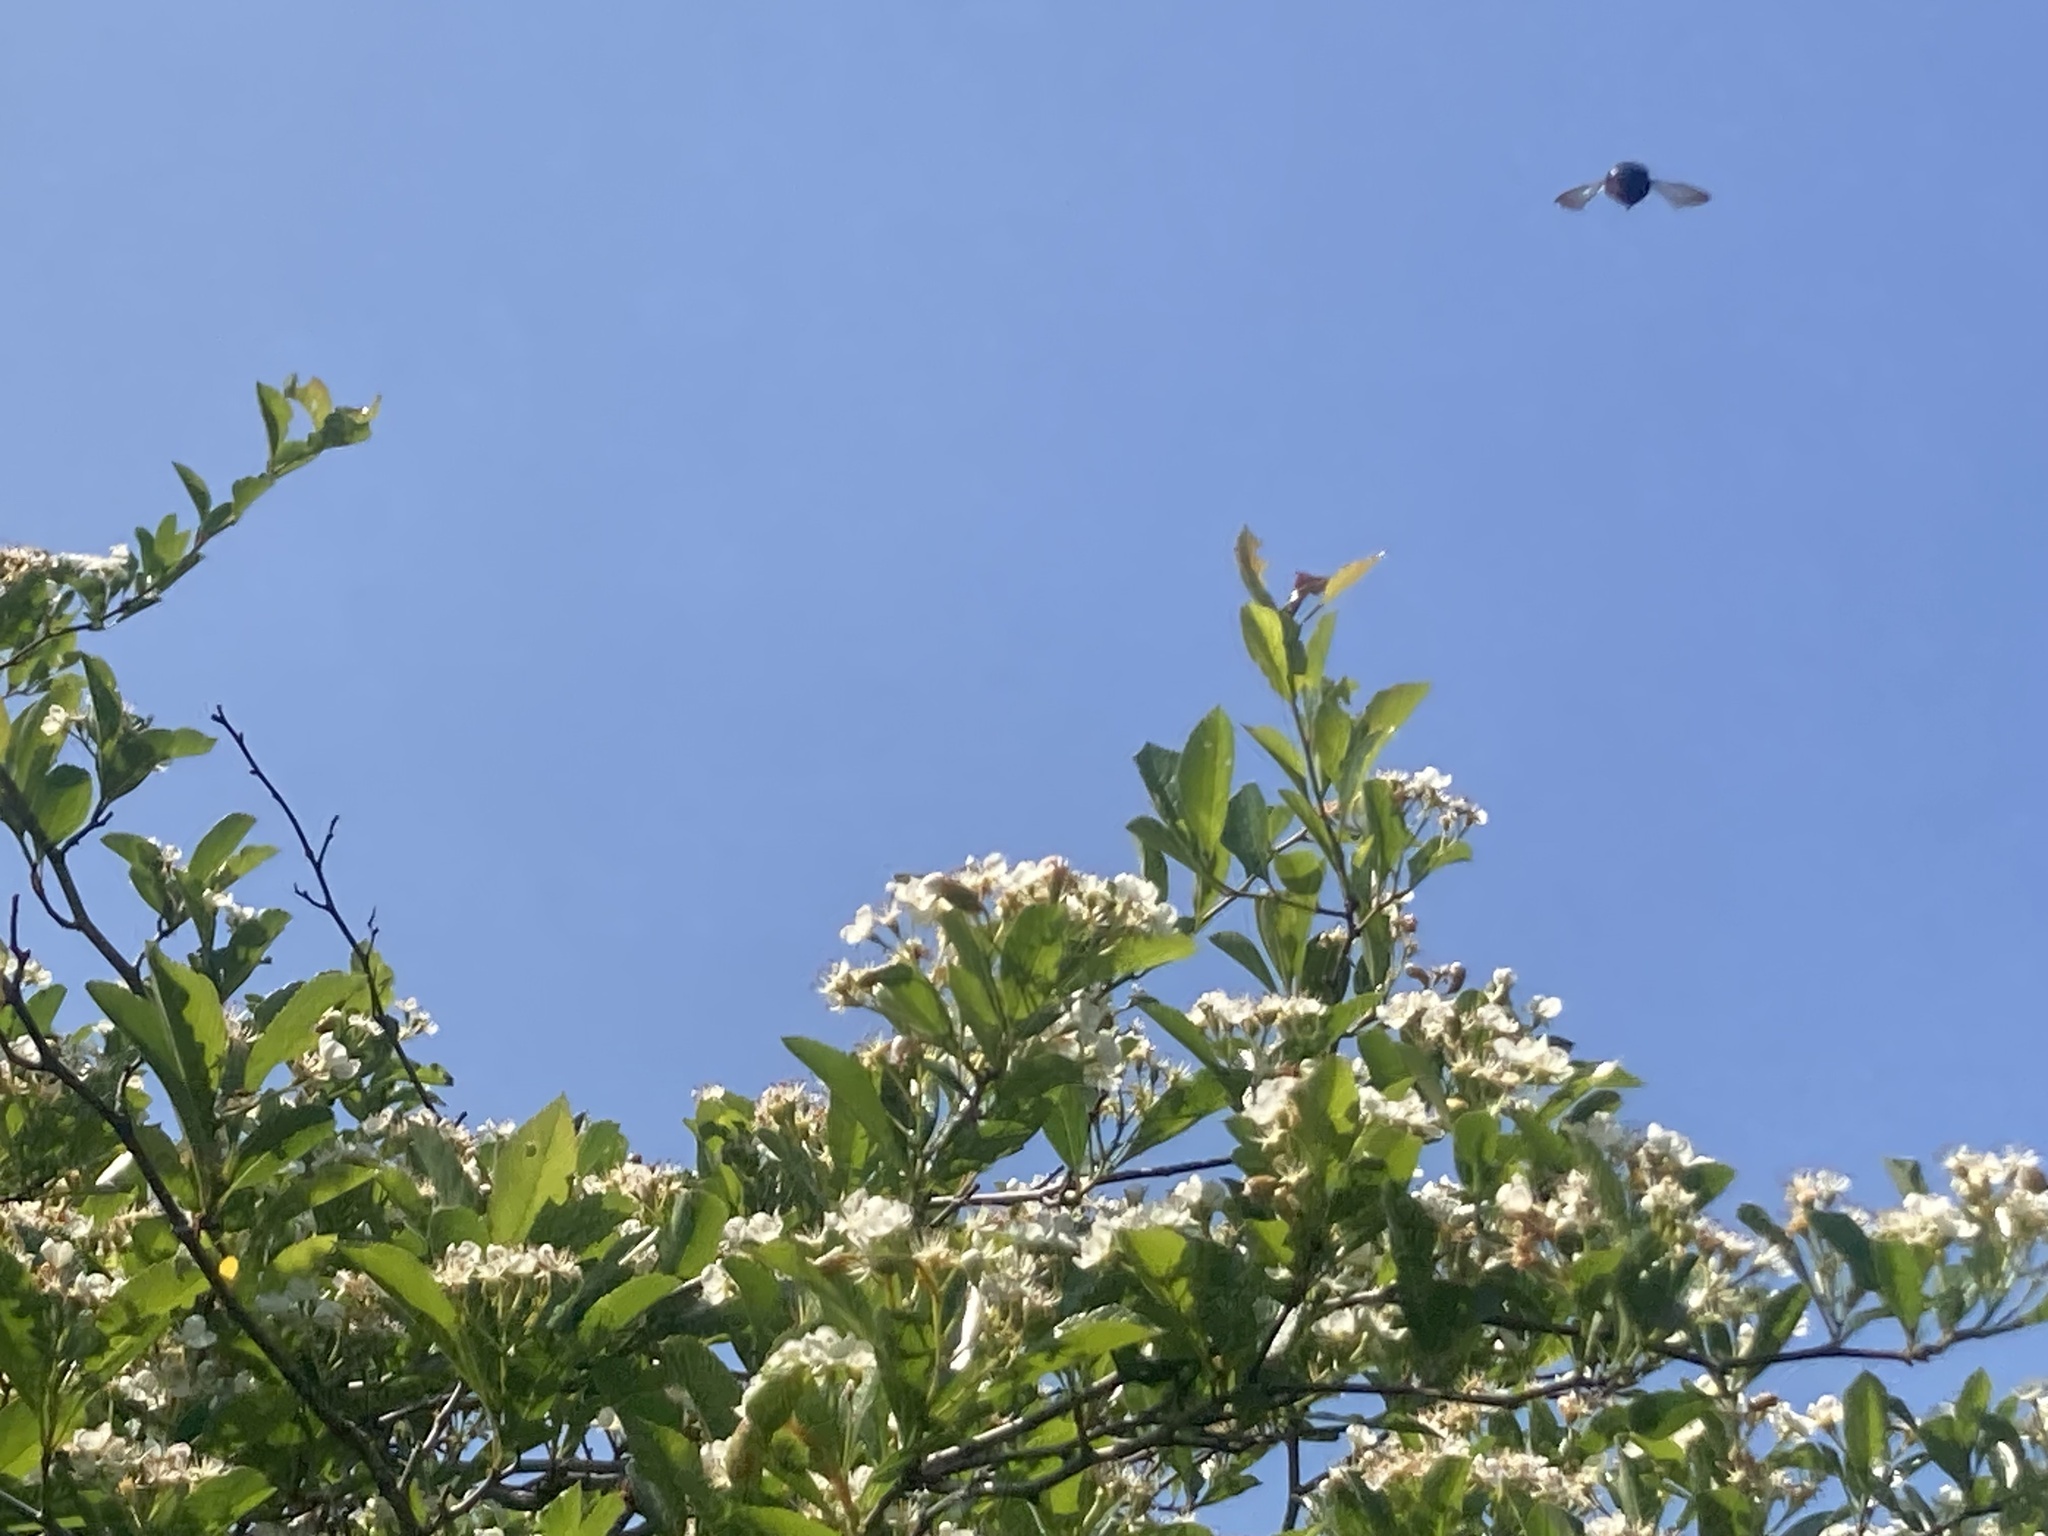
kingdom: Animalia
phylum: Arthropoda
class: Insecta
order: Hymenoptera
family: Apidae
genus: Xylocopa
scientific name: Xylocopa virginica
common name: Carpenter bee
